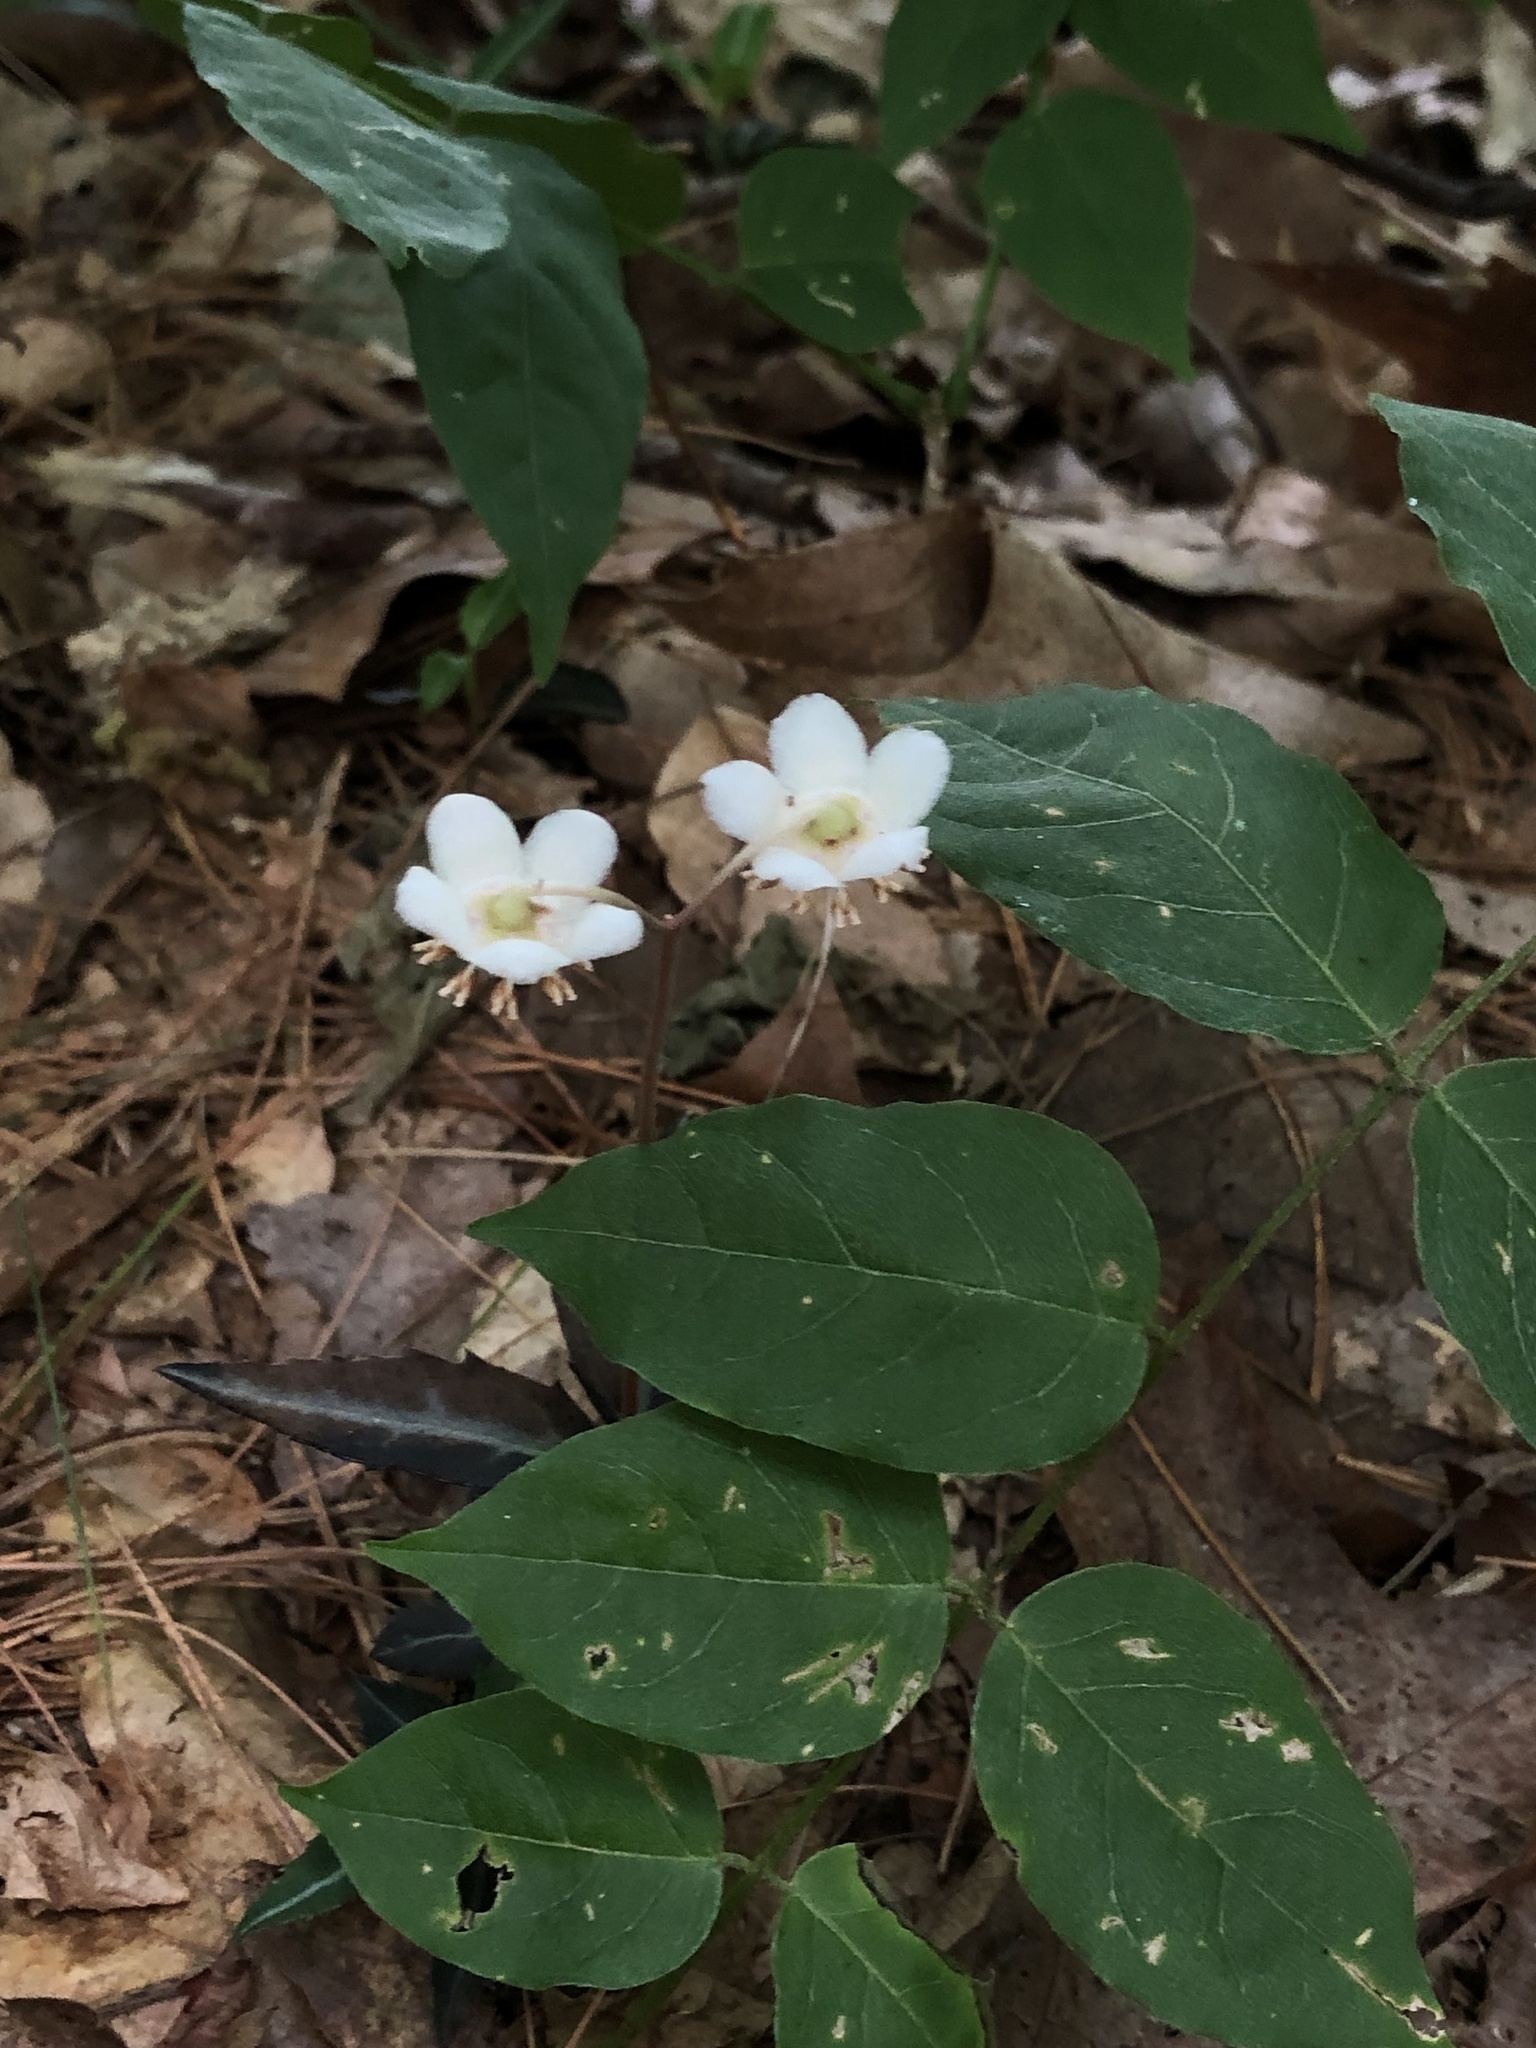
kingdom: Plantae
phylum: Tracheophyta
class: Magnoliopsida
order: Ericales
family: Ericaceae
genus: Chimaphila
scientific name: Chimaphila maculata
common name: Spotted pipsissewa
